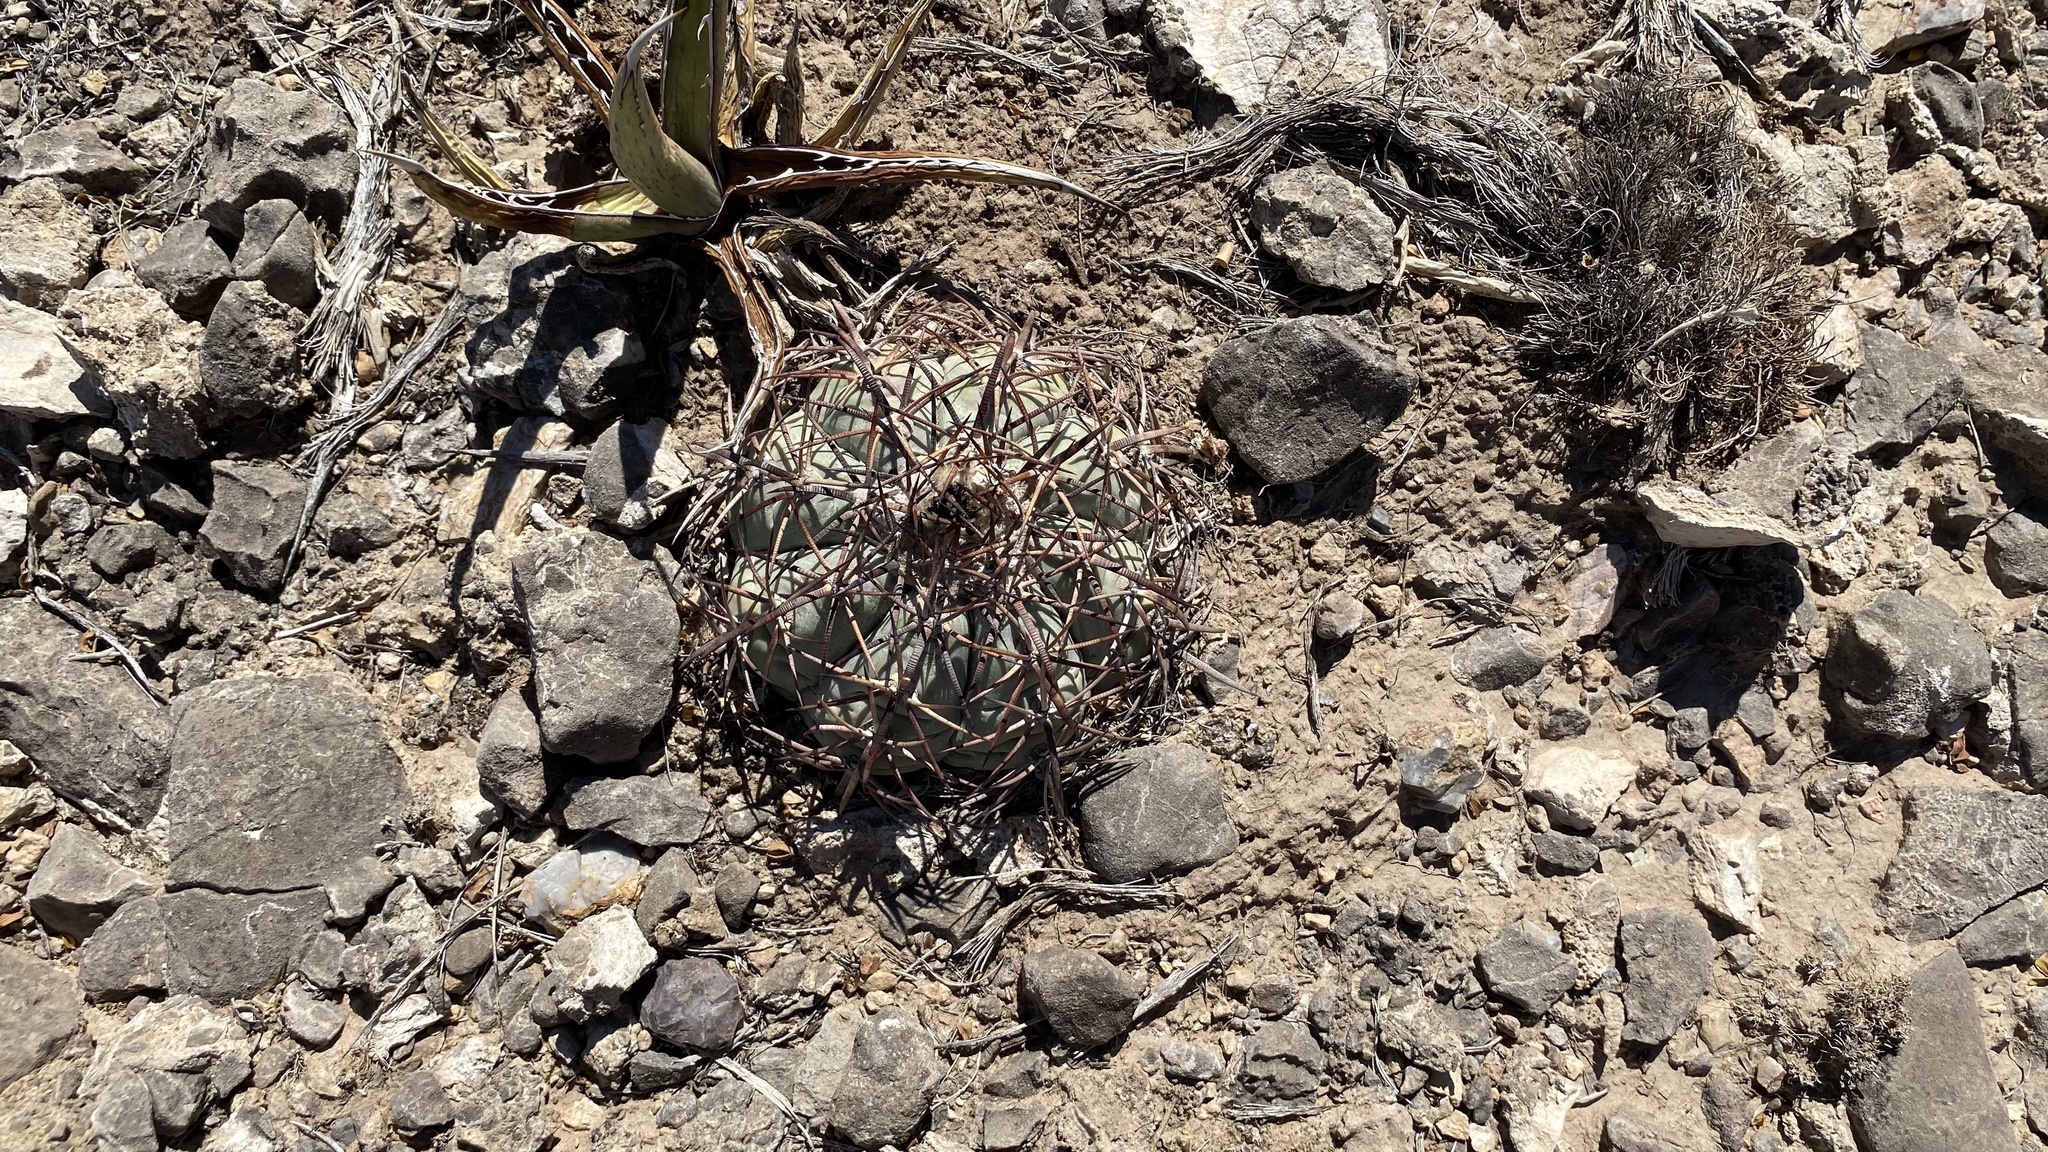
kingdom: Plantae
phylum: Tracheophyta
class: Magnoliopsida
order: Caryophyllales
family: Cactaceae
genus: Echinocactus
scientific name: Echinocactus horizonthalonius
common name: Devilshead
